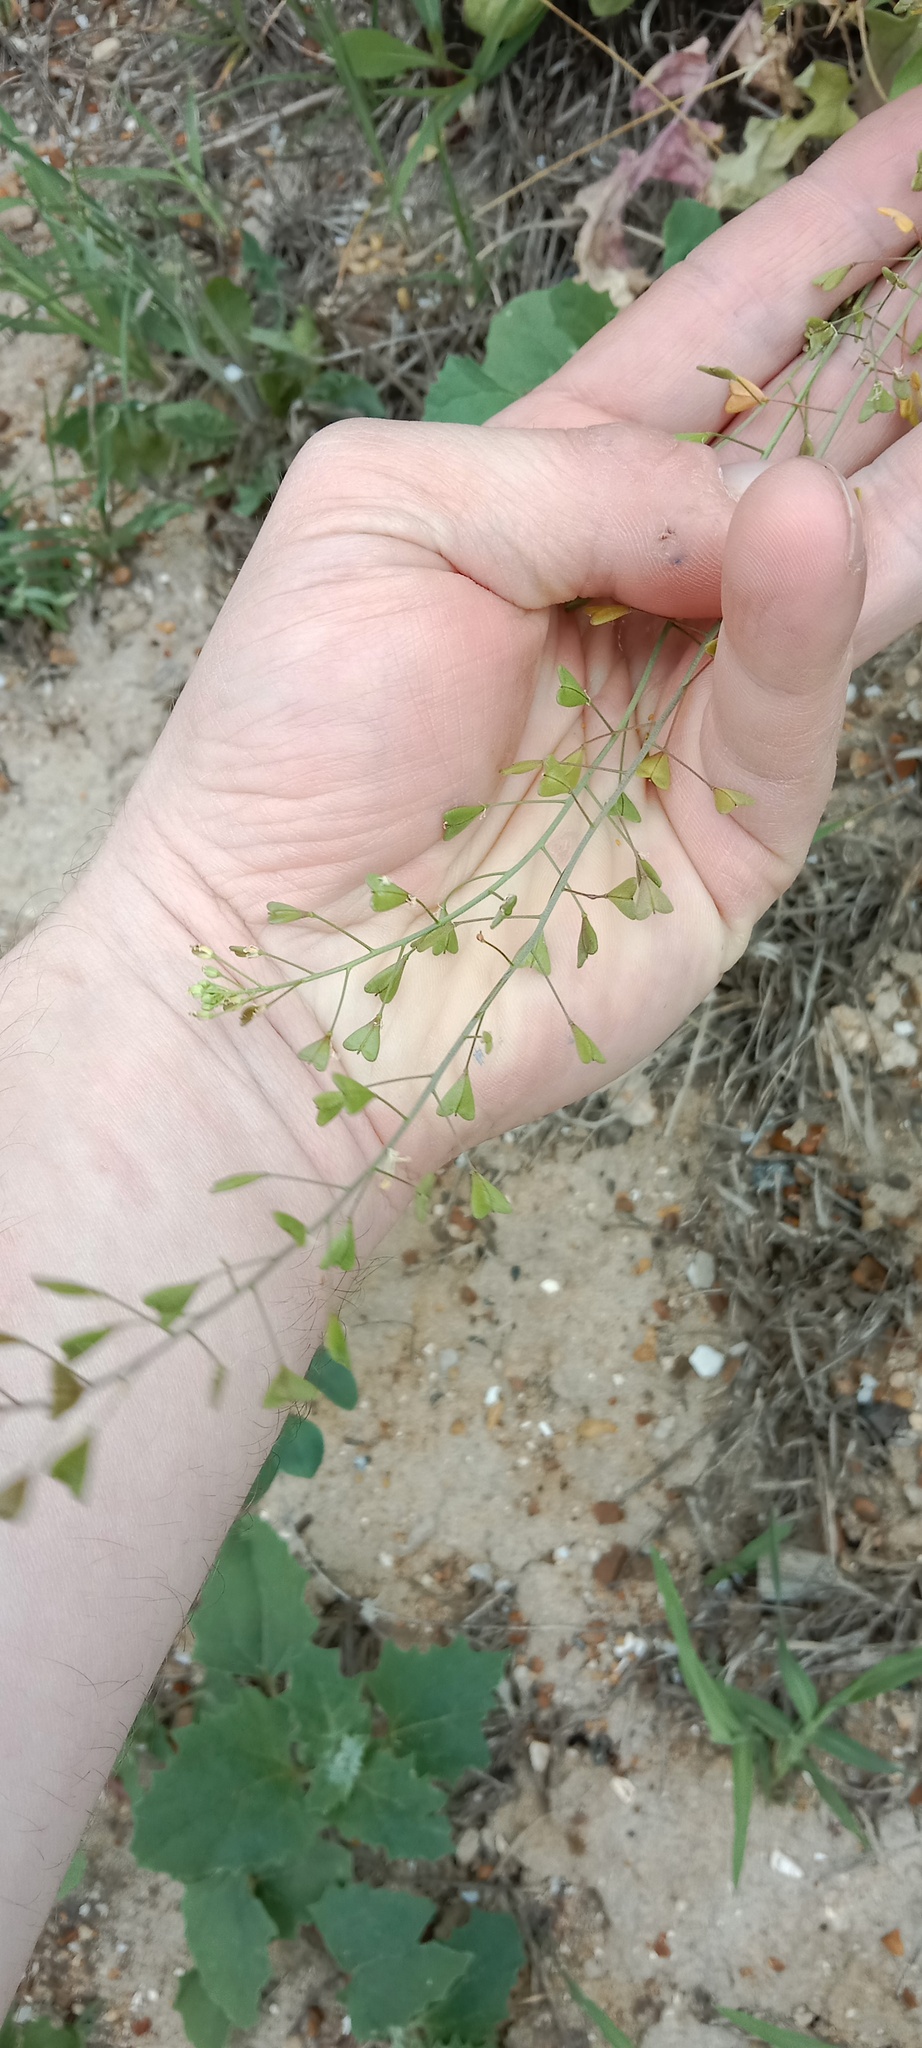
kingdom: Plantae
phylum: Tracheophyta
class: Magnoliopsida
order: Brassicales
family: Brassicaceae
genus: Capsella
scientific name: Capsella bursa-pastoris
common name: Shepherd's purse
